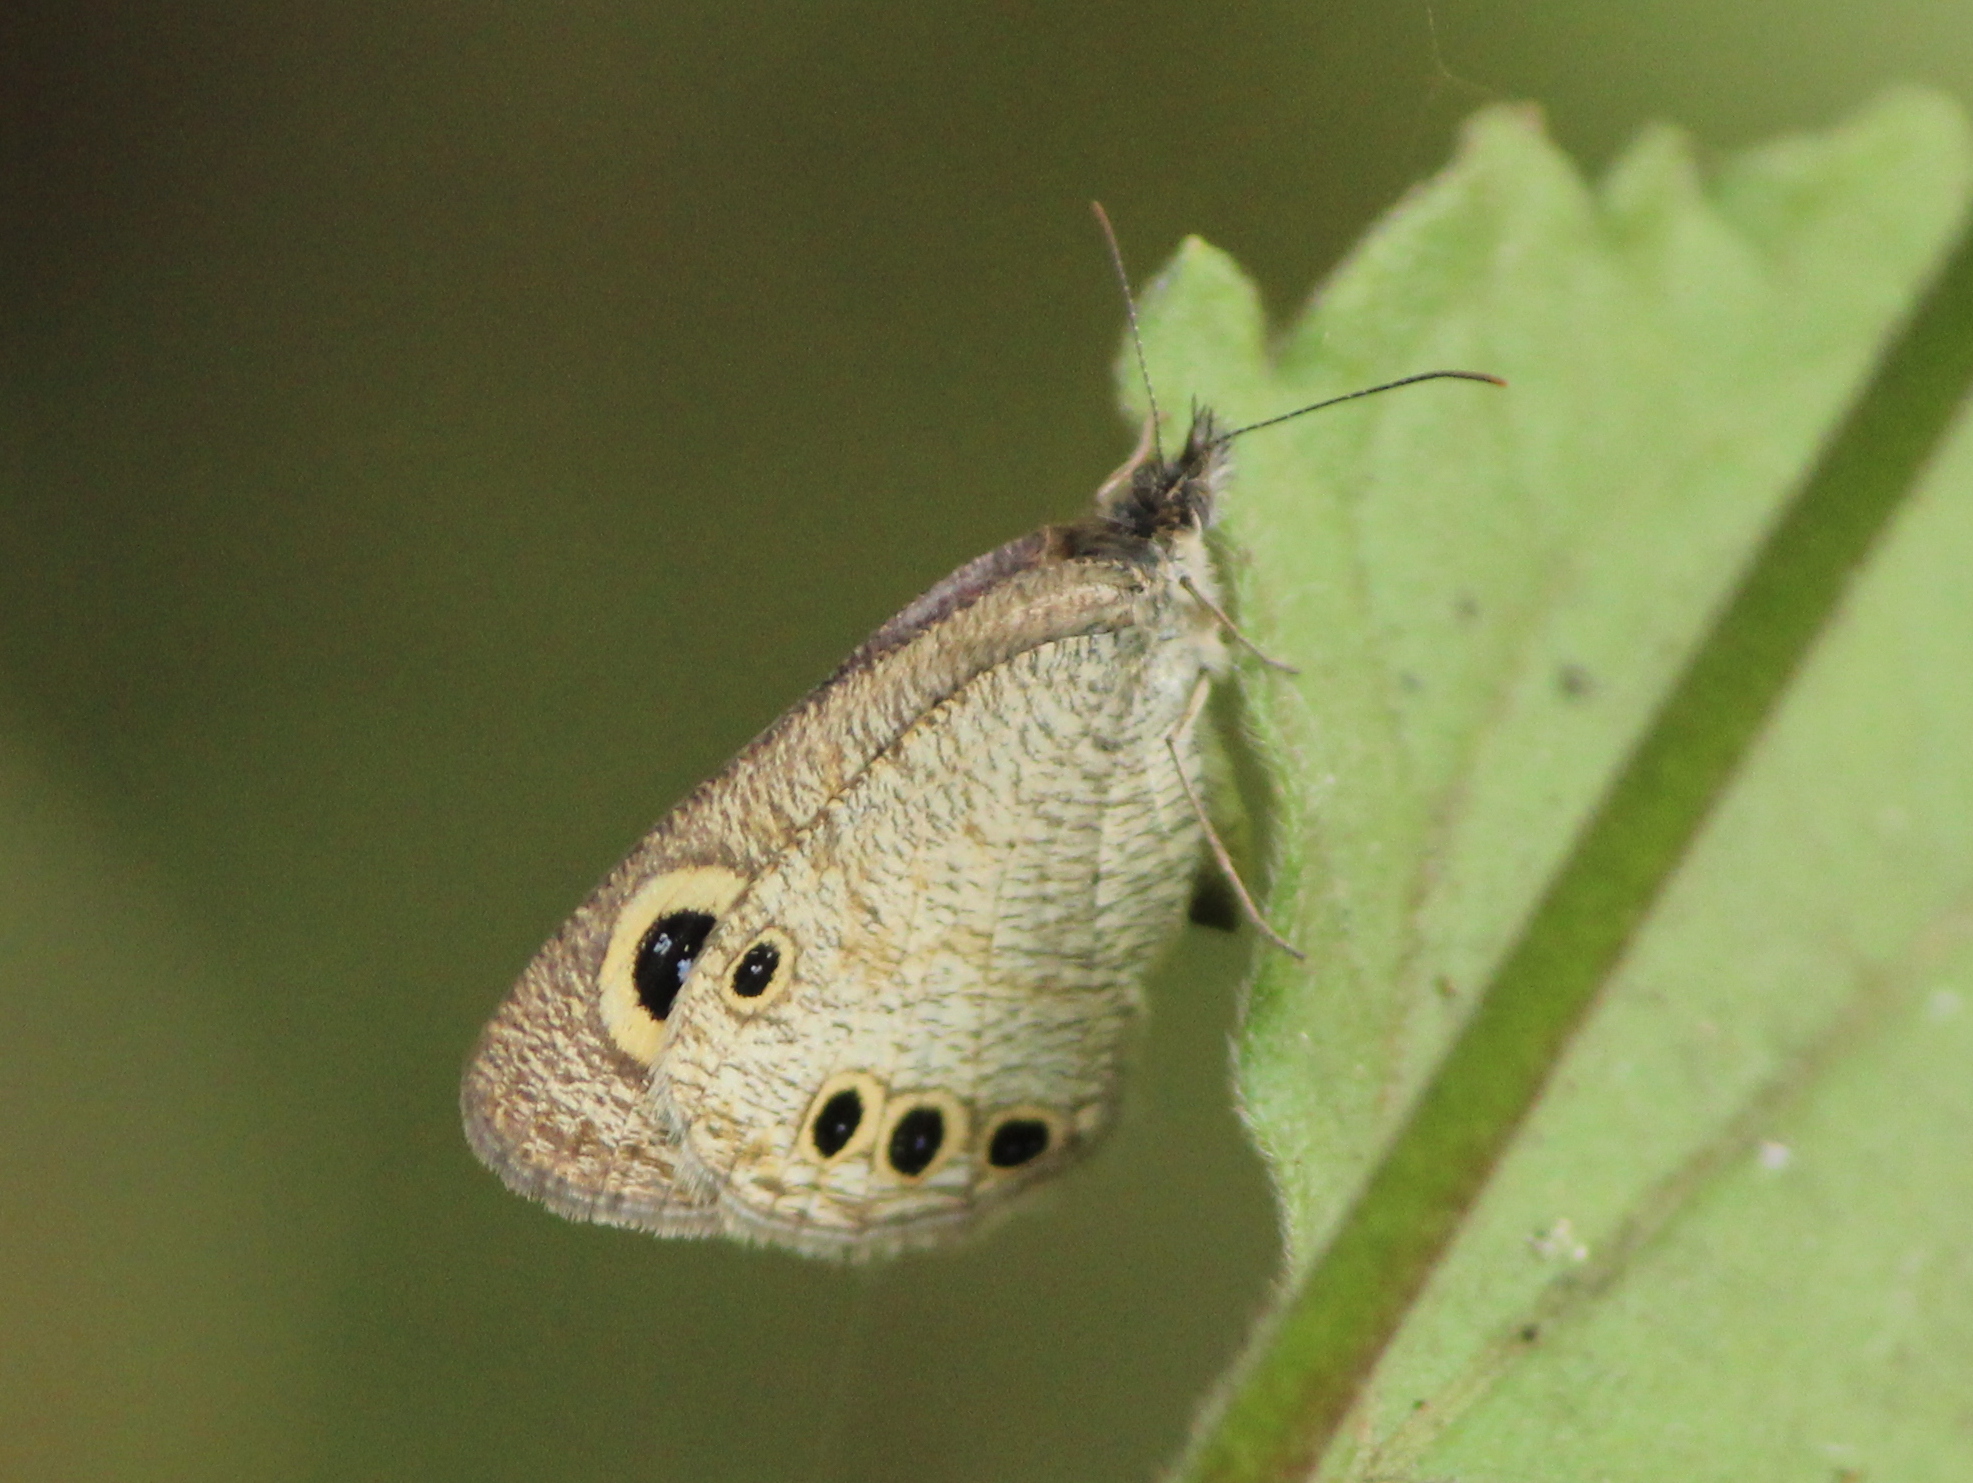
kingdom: Animalia
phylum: Arthropoda
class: Insecta
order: Lepidoptera
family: Nymphalidae
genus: Ypthima
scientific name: Ypthima huebneri
